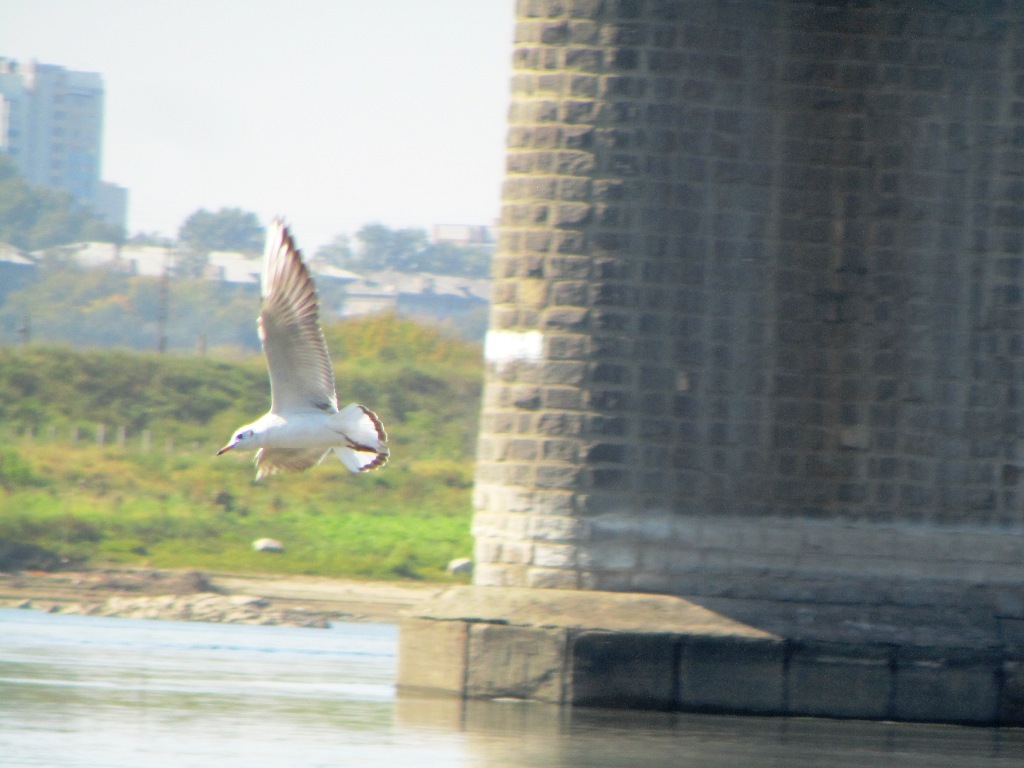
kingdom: Animalia
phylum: Chordata
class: Aves
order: Charadriiformes
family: Laridae
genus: Chroicocephalus
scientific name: Chroicocephalus ridibundus
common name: Black-headed gull
